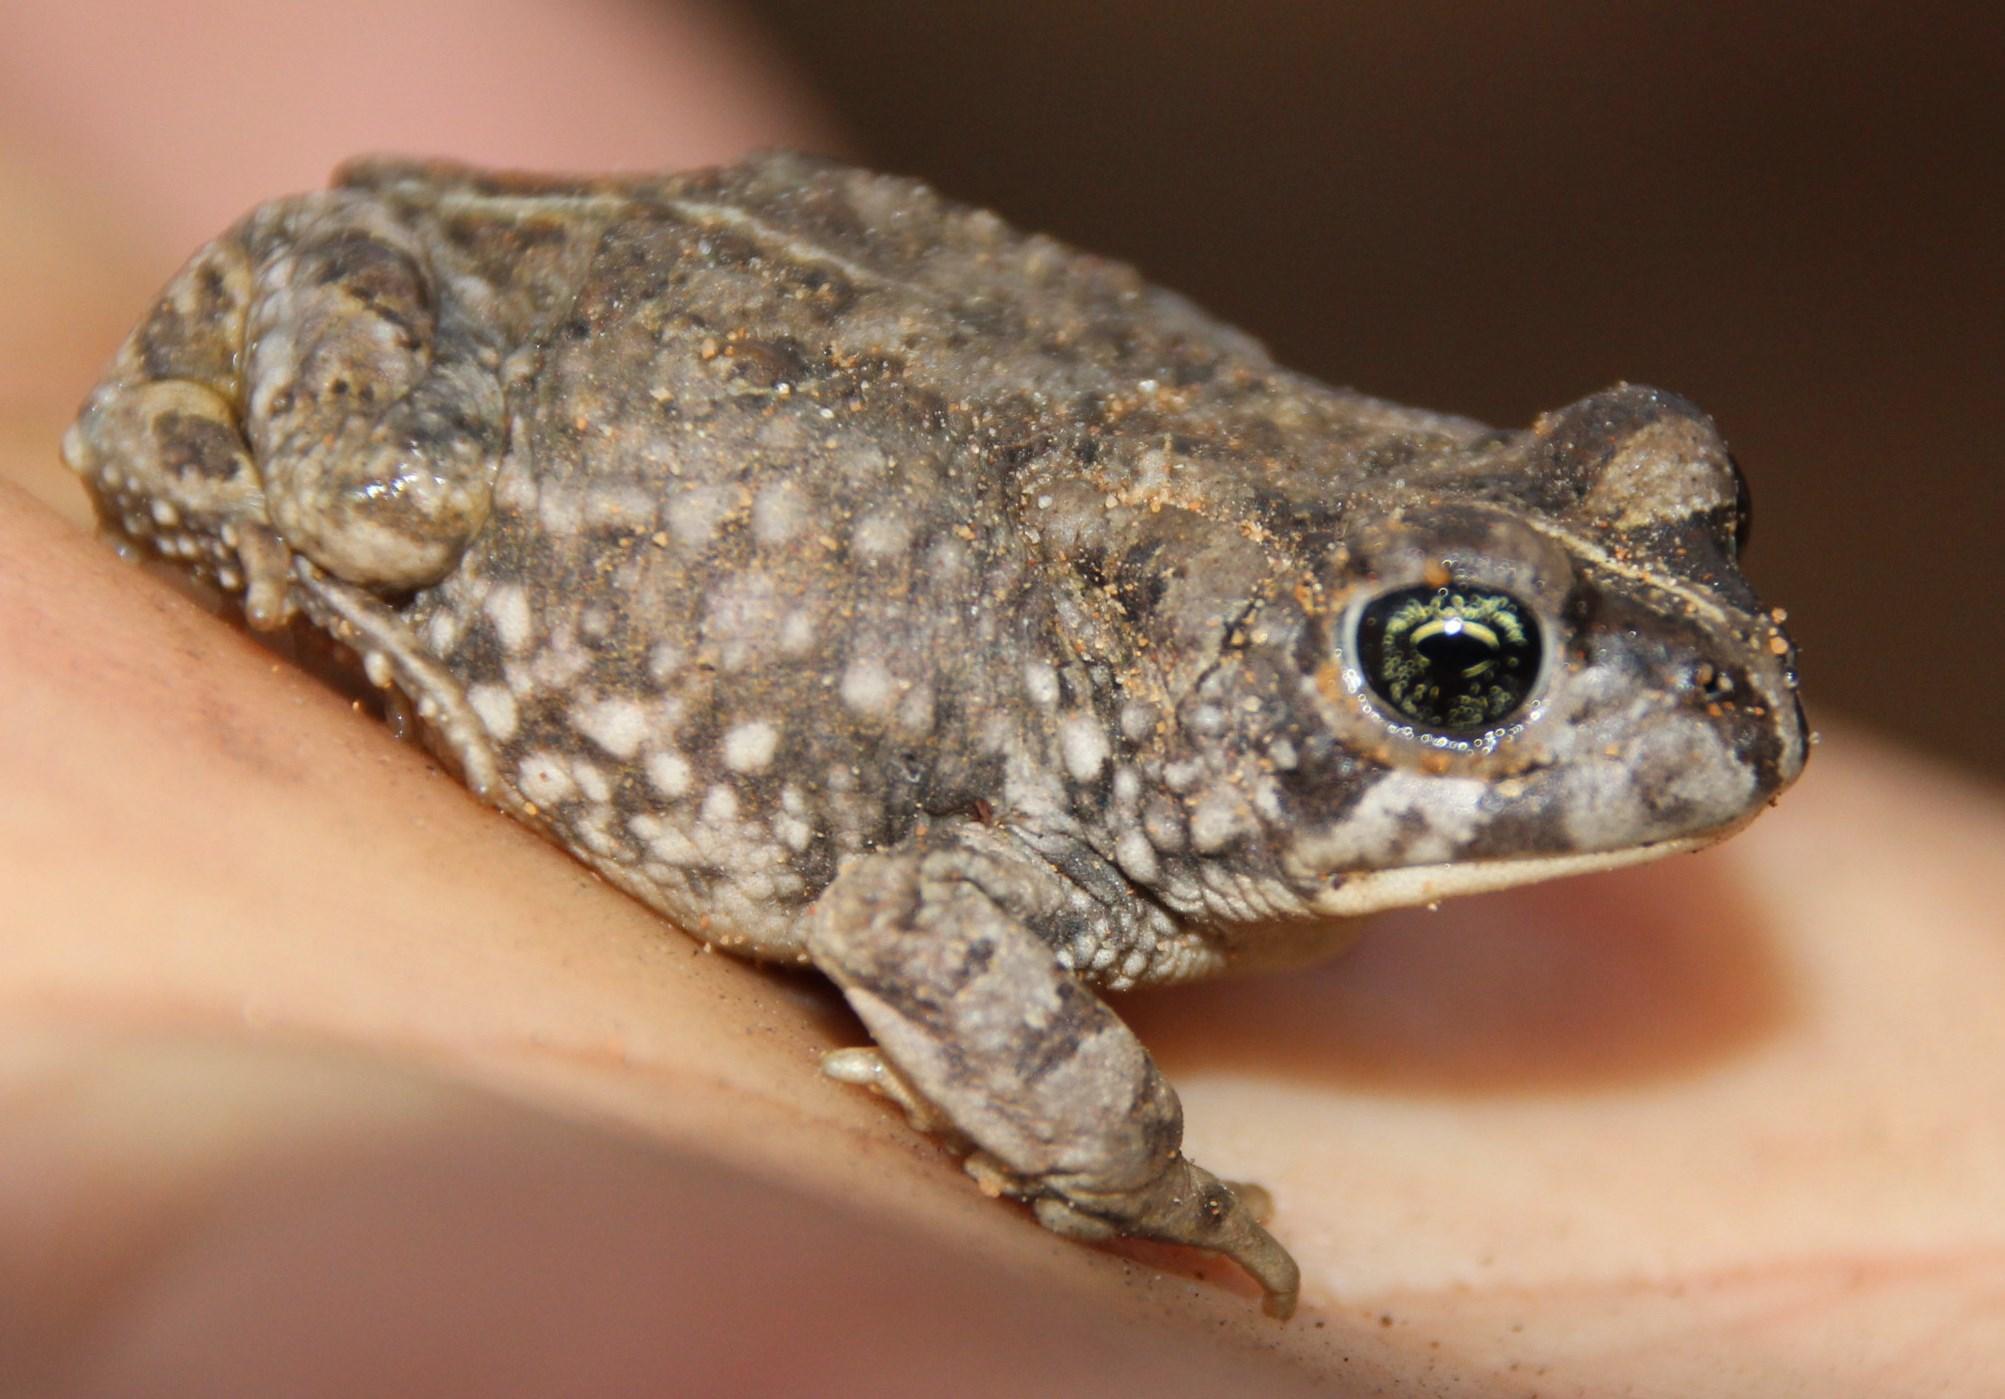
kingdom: Animalia
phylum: Chordata
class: Amphibia
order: Anura
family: Bufonidae
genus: Vandijkophrynus
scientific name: Vandijkophrynus angusticeps
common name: Sand toad
